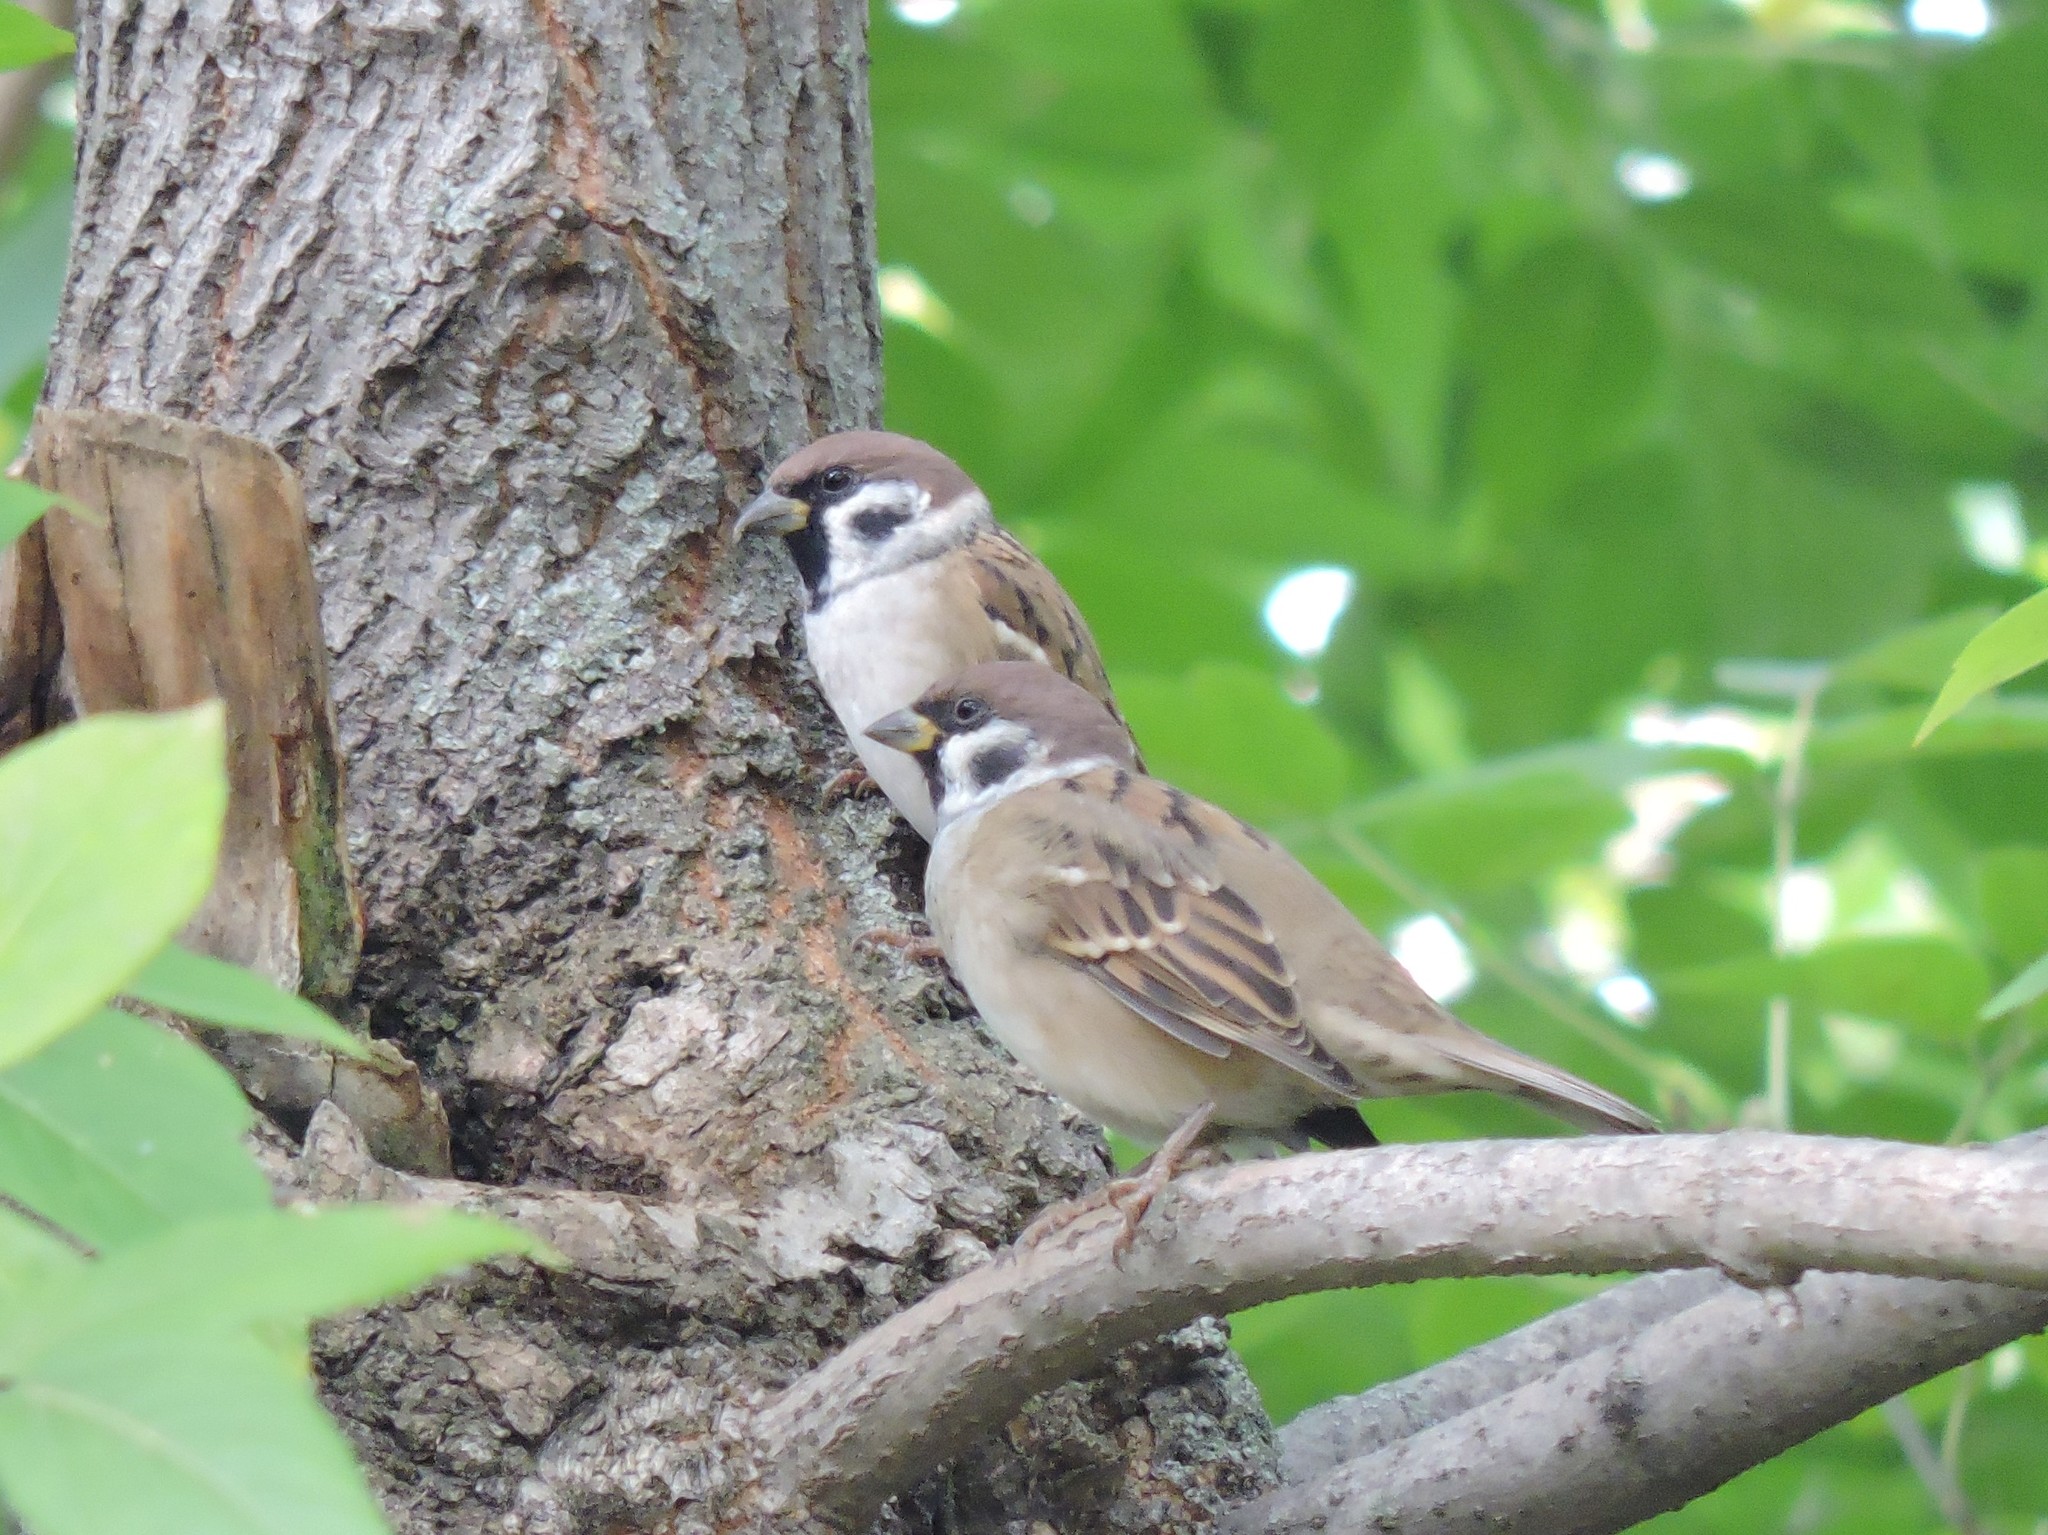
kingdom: Animalia
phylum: Chordata
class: Aves
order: Passeriformes
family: Passeridae
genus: Passer
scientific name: Passer montanus
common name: Eurasian tree sparrow
